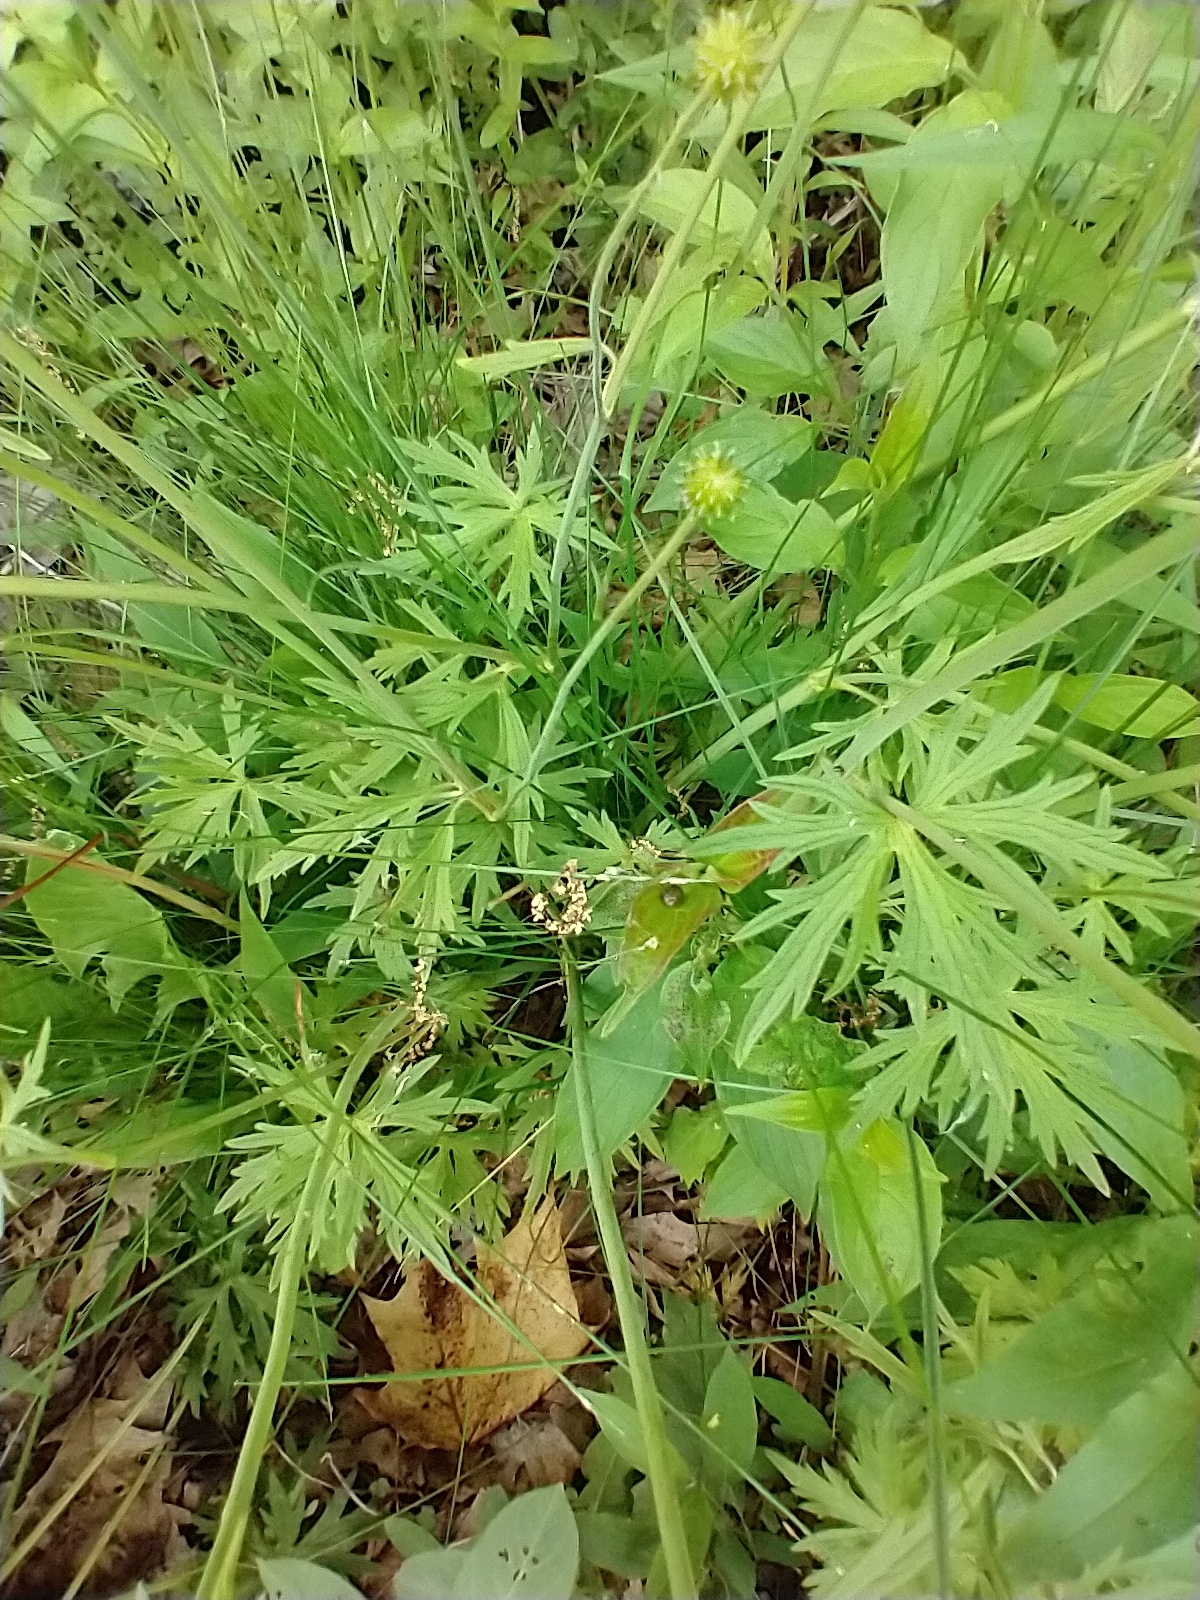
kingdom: Plantae
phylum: Tracheophyta
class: Magnoliopsida
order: Ranunculales
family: Ranunculaceae
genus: Ranunculus
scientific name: Ranunculus acris
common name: Meadow buttercup
